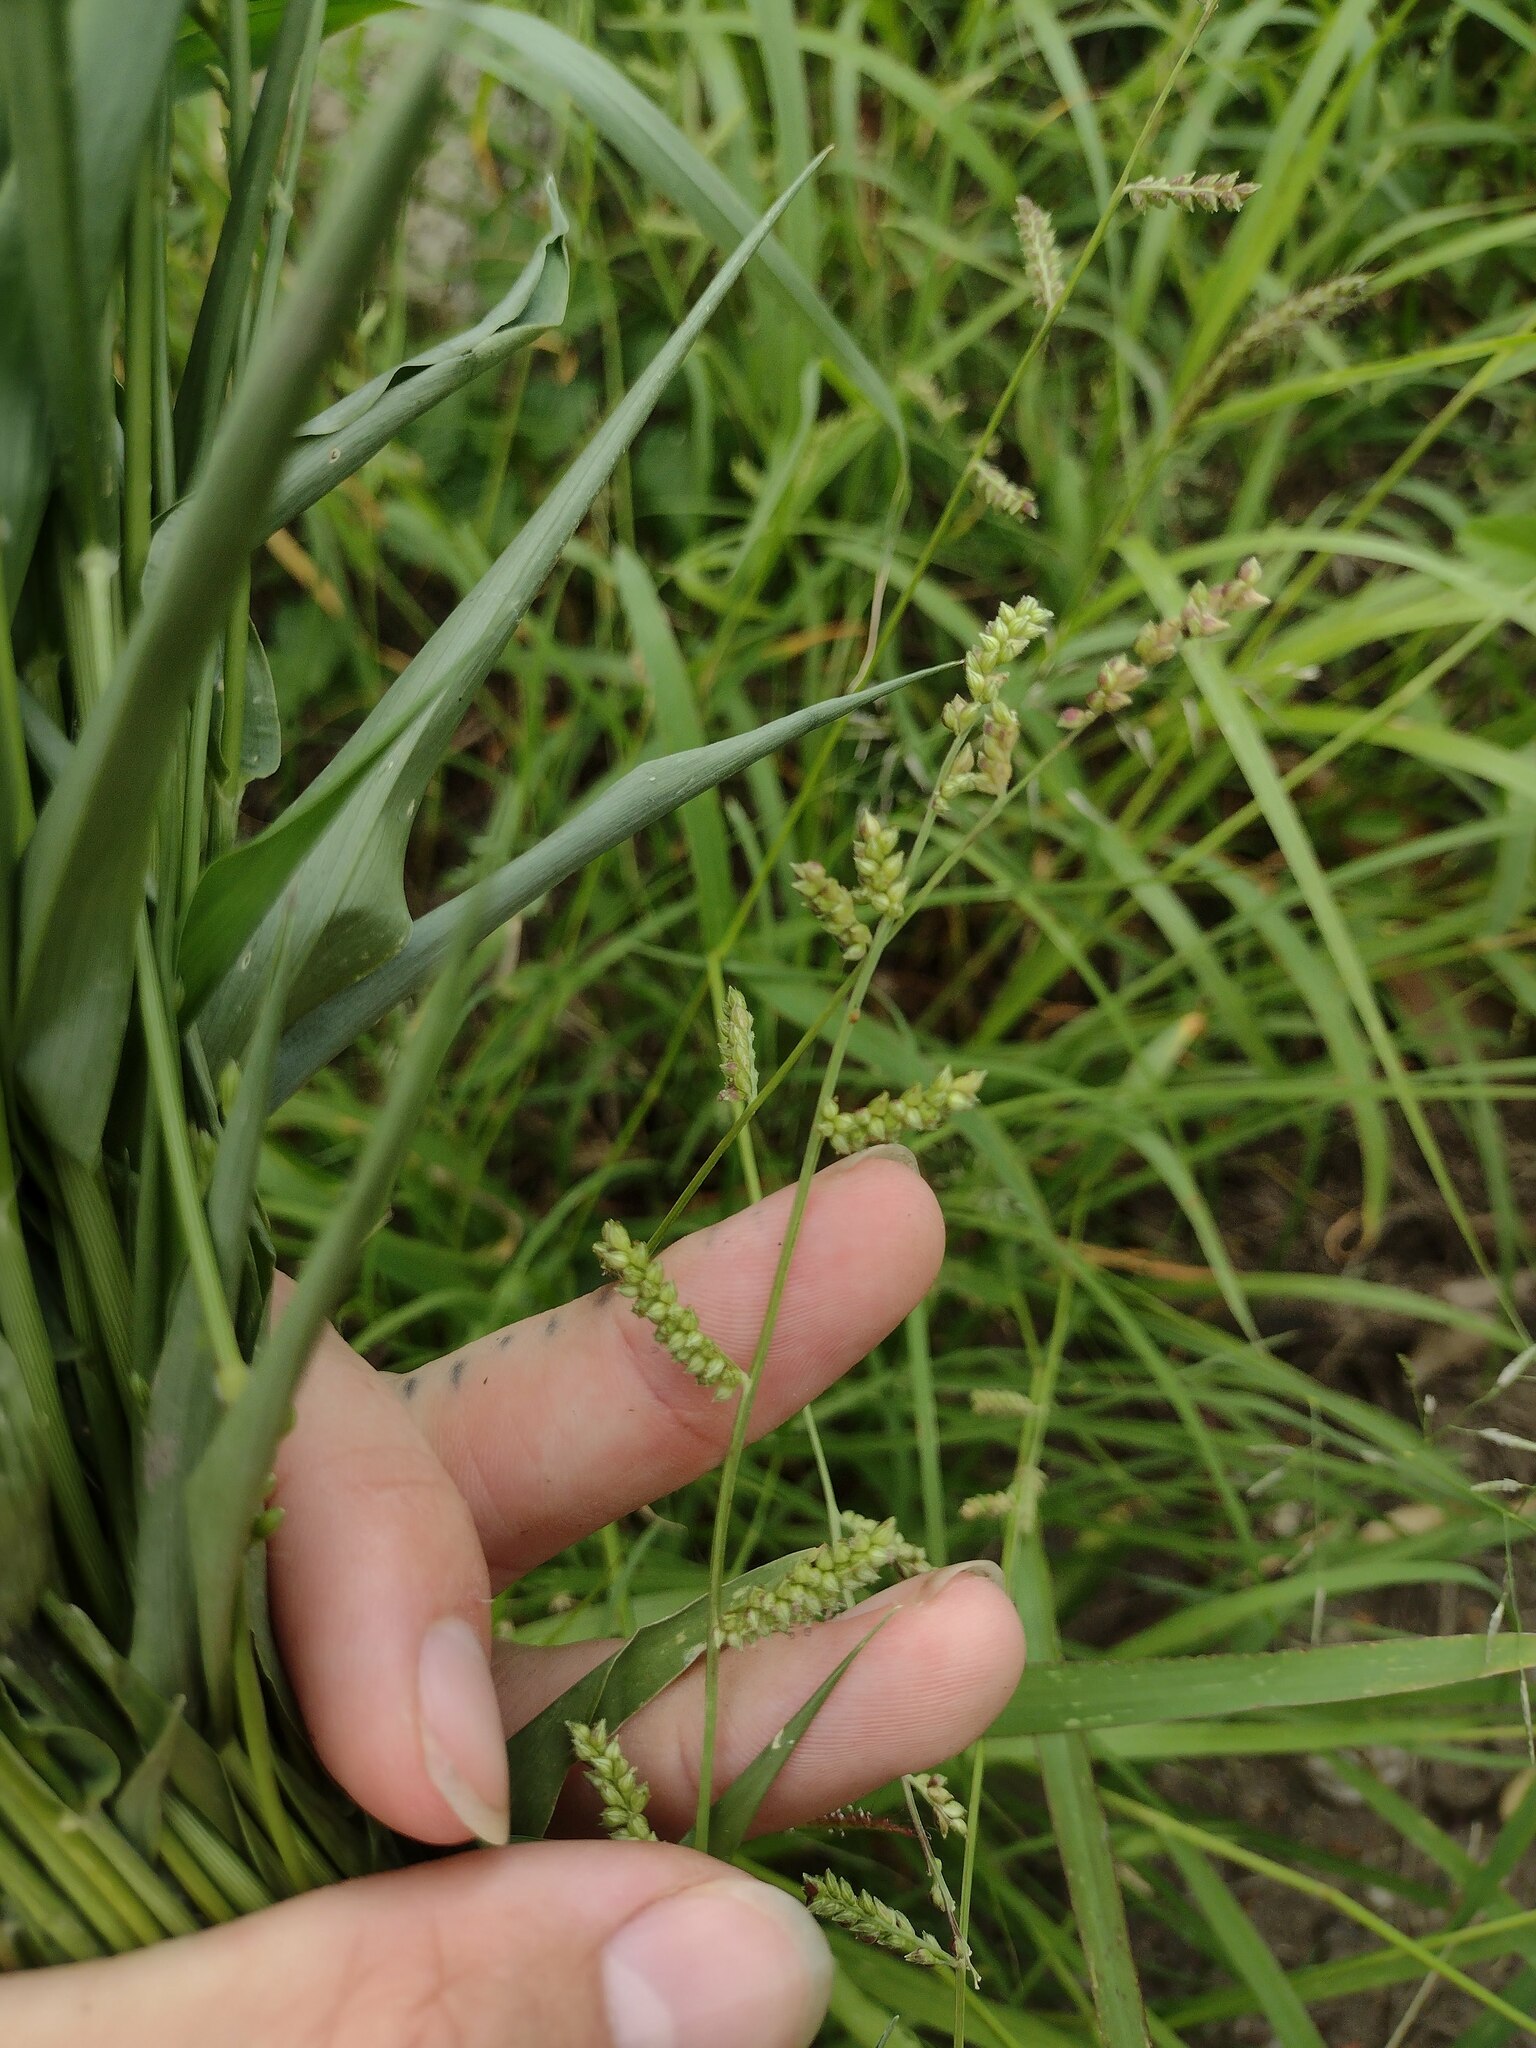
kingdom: Plantae
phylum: Tracheophyta
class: Liliopsida
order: Poales
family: Poaceae
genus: Echinochloa
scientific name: Echinochloa colonum
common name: Jungle rice
